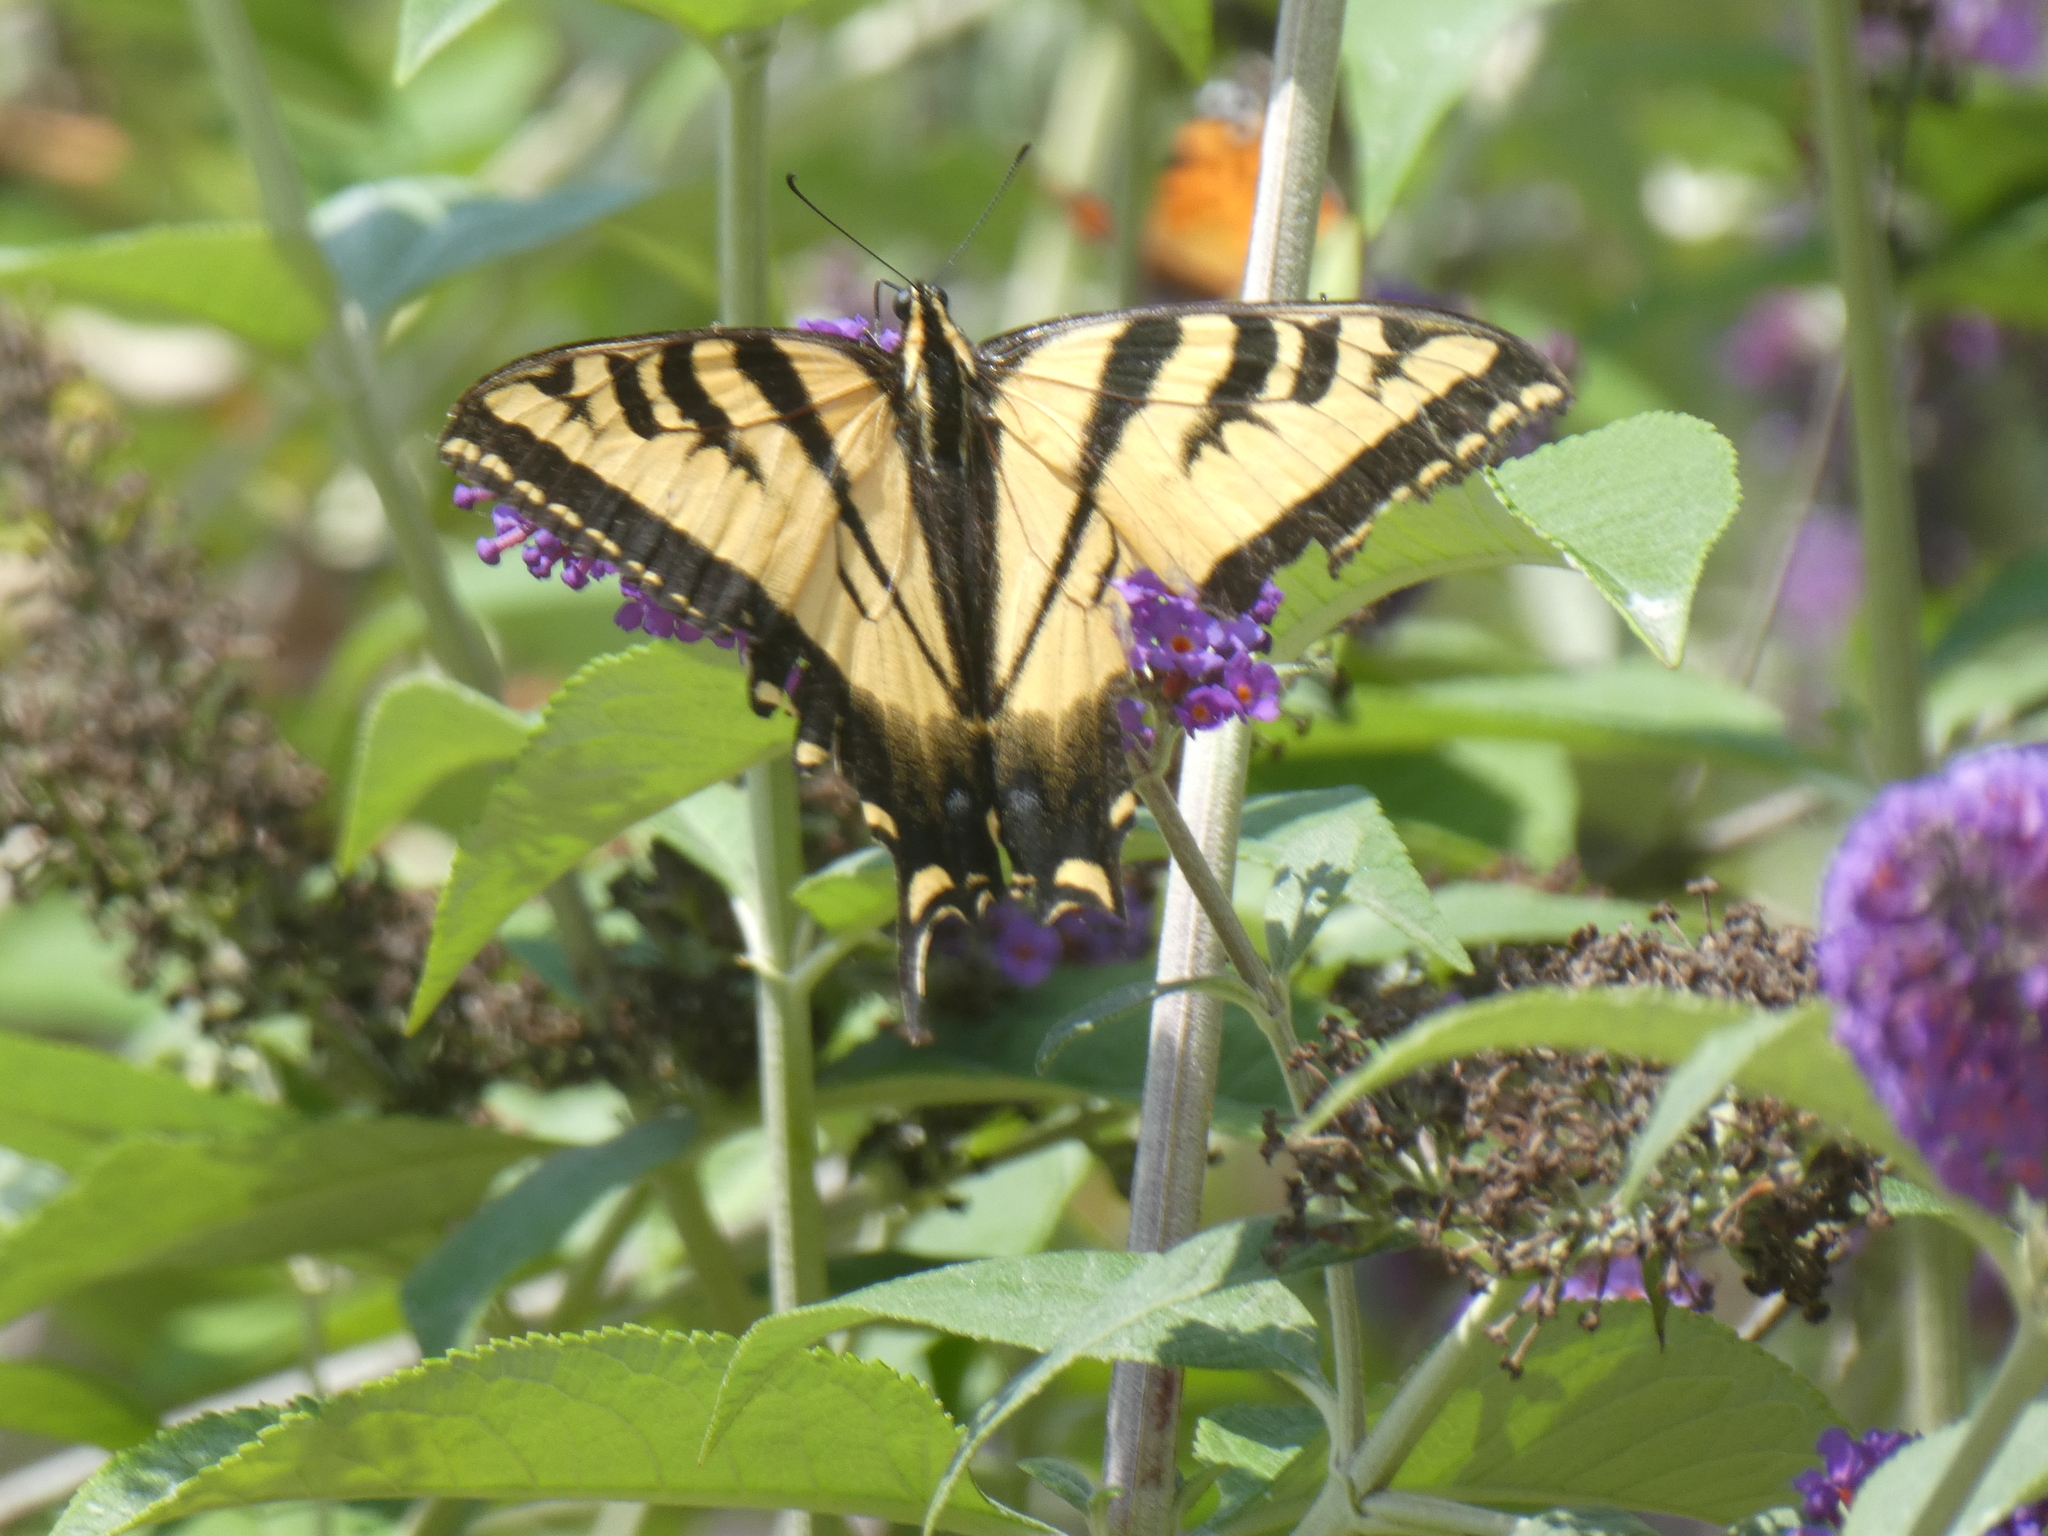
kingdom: Animalia
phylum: Arthropoda
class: Insecta
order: Lepidoptera
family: Papilionidae
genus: Papilio
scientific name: Papilio rutulus
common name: Western tiger swallowtail
